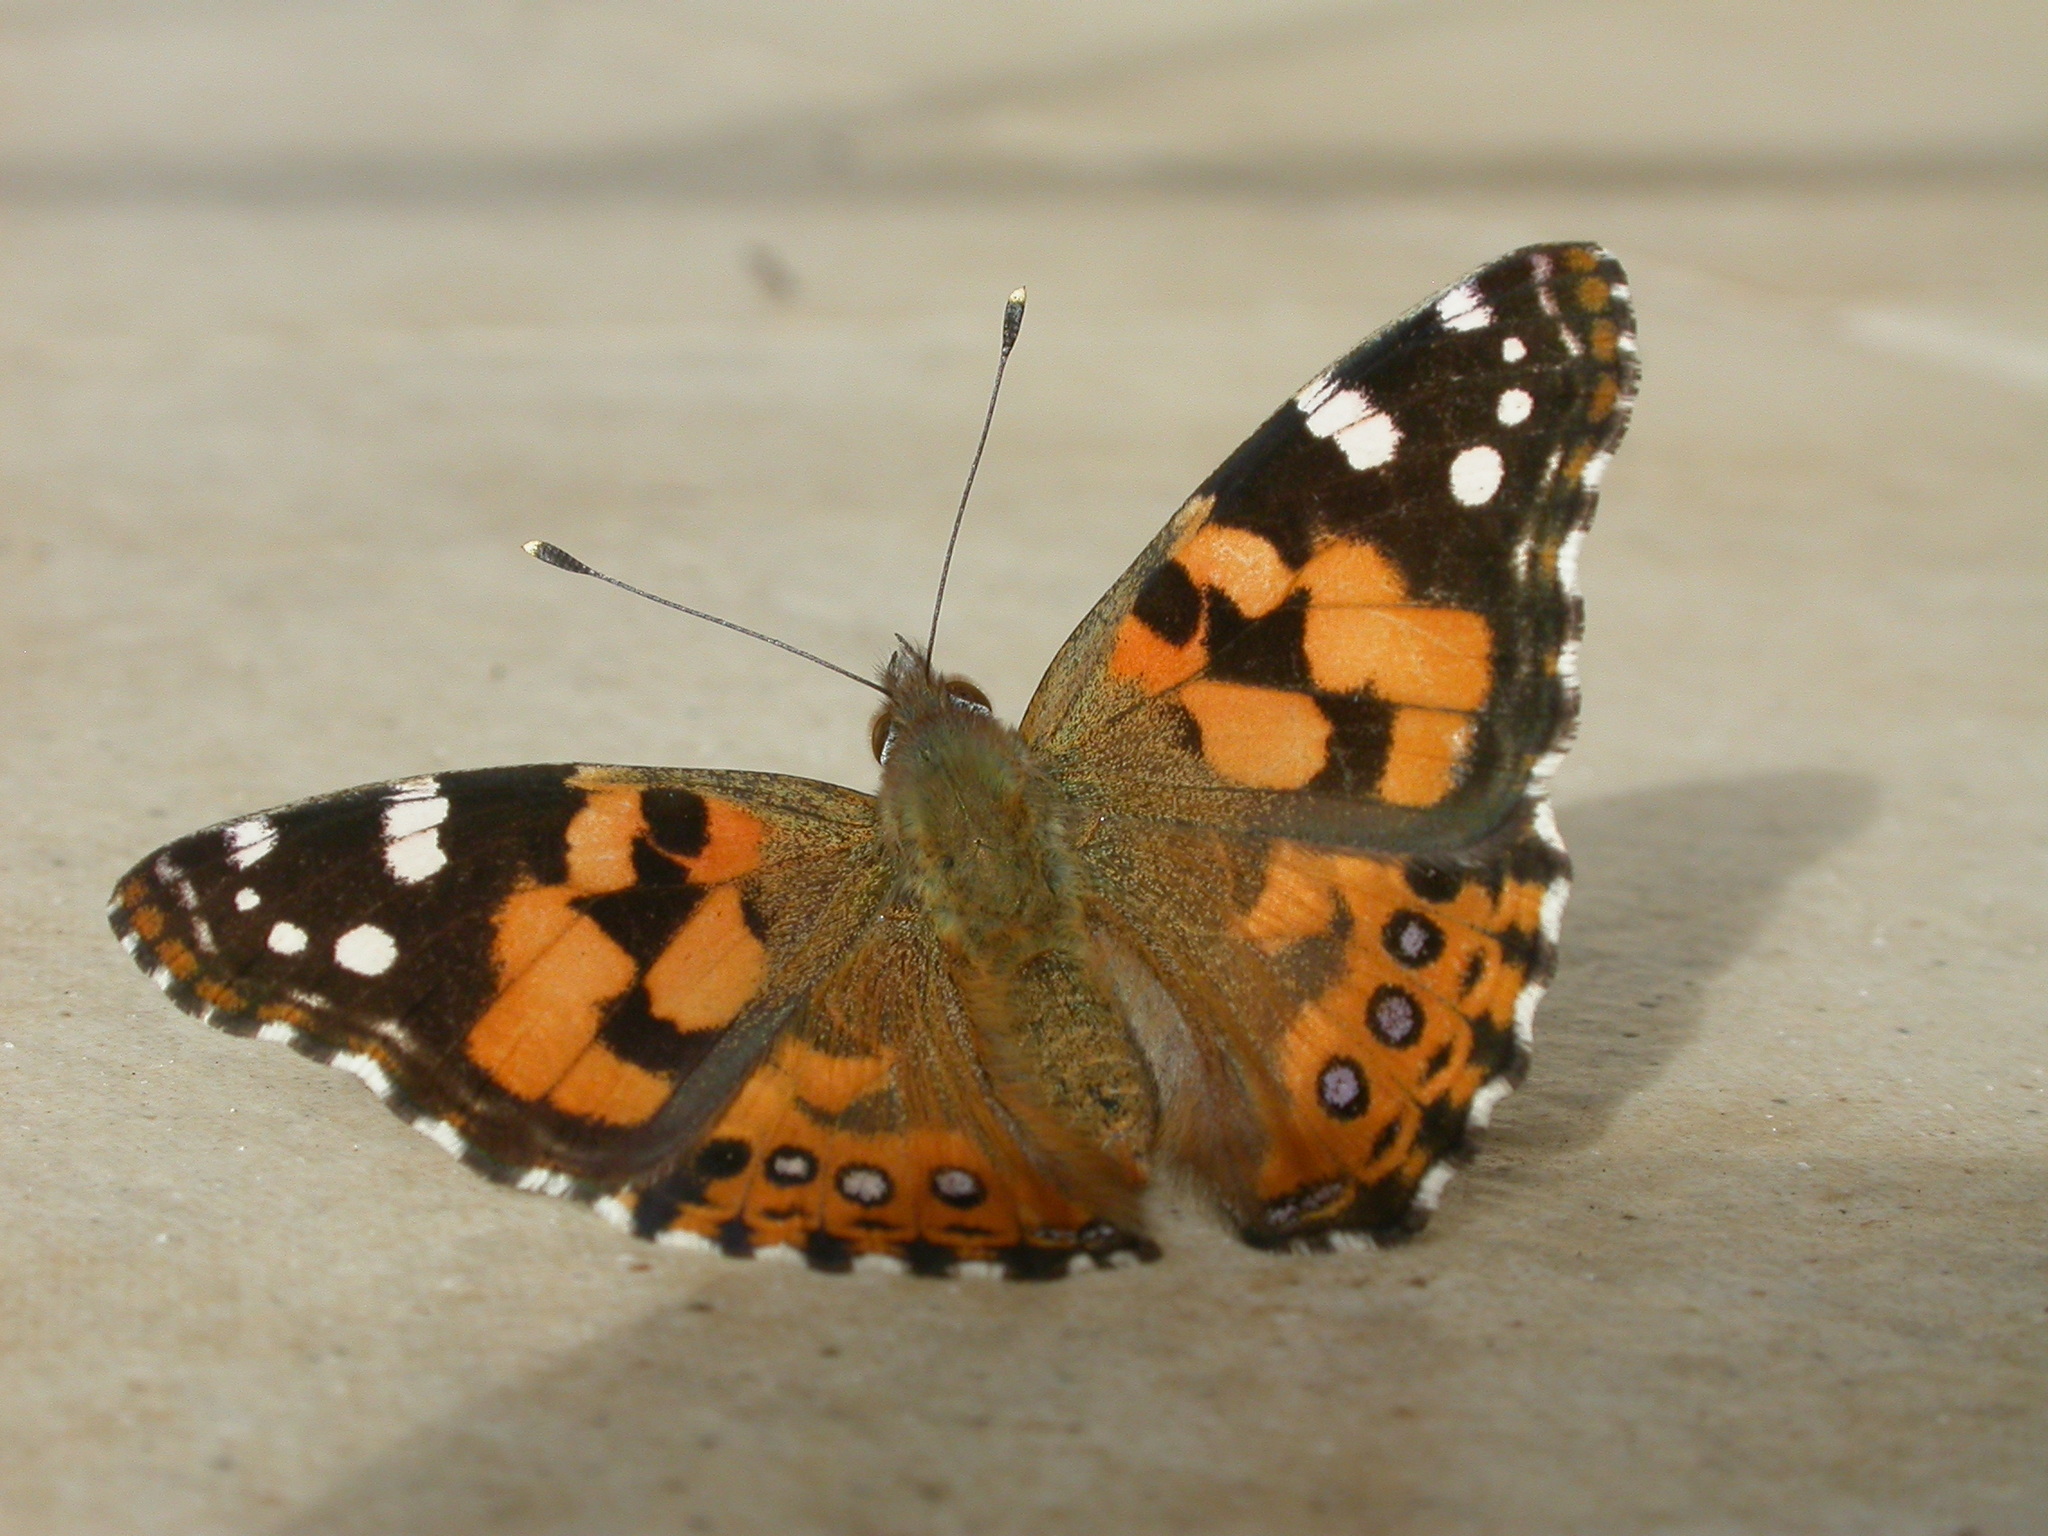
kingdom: Animalia
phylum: Arthropoda
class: Insecta
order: Lepidoptera
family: Nymphalidae
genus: Vanessa
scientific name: Vanessa kershawi
